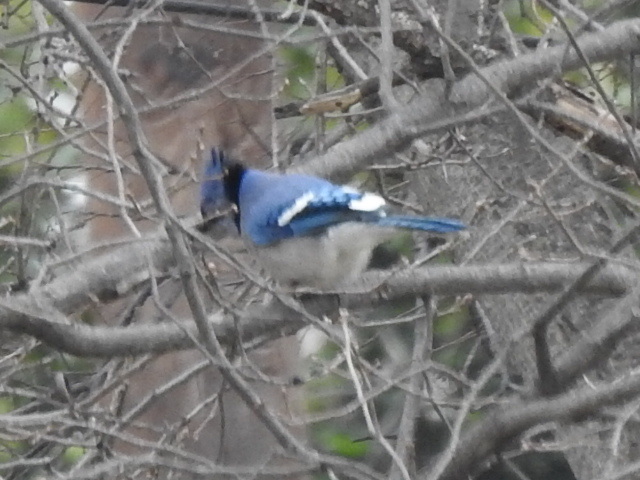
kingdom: Animalia
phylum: Chordata
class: Aves
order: Passeriformes
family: Corvidae
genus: Cyanocitta
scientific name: Cyanocitta cristata
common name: Blue jay
